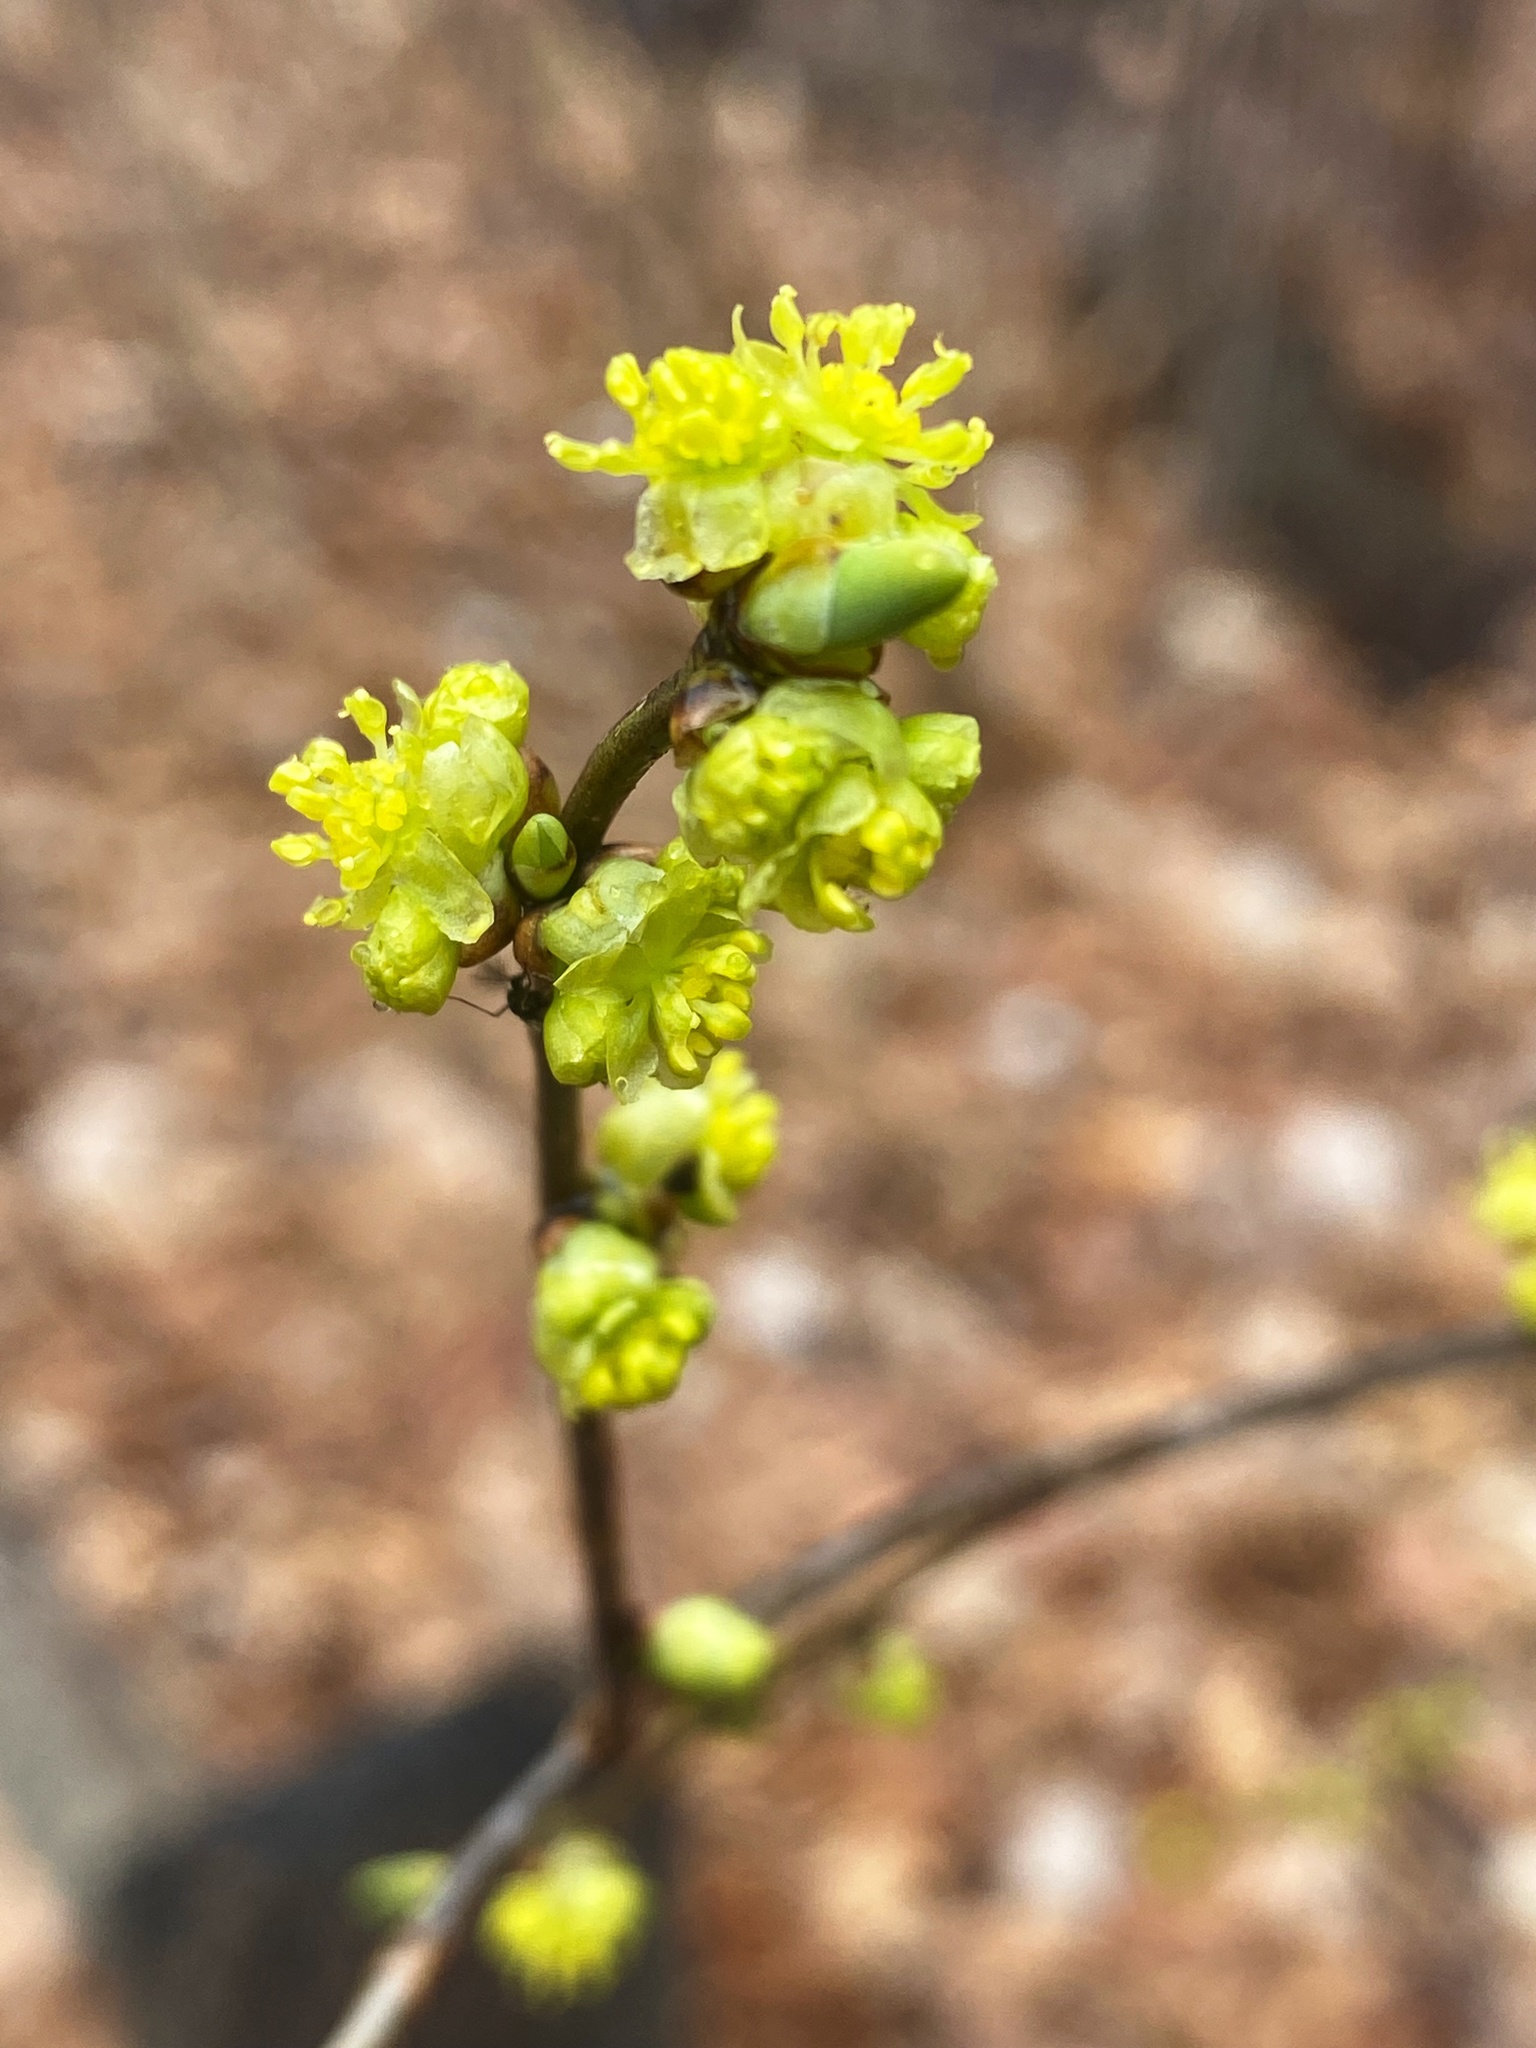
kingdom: Plantae
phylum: Tracheophyta
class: Magnoliopsida
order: Laurales
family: Lauraceae
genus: Lindera
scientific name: Lindera benzoin
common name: Spicebush
